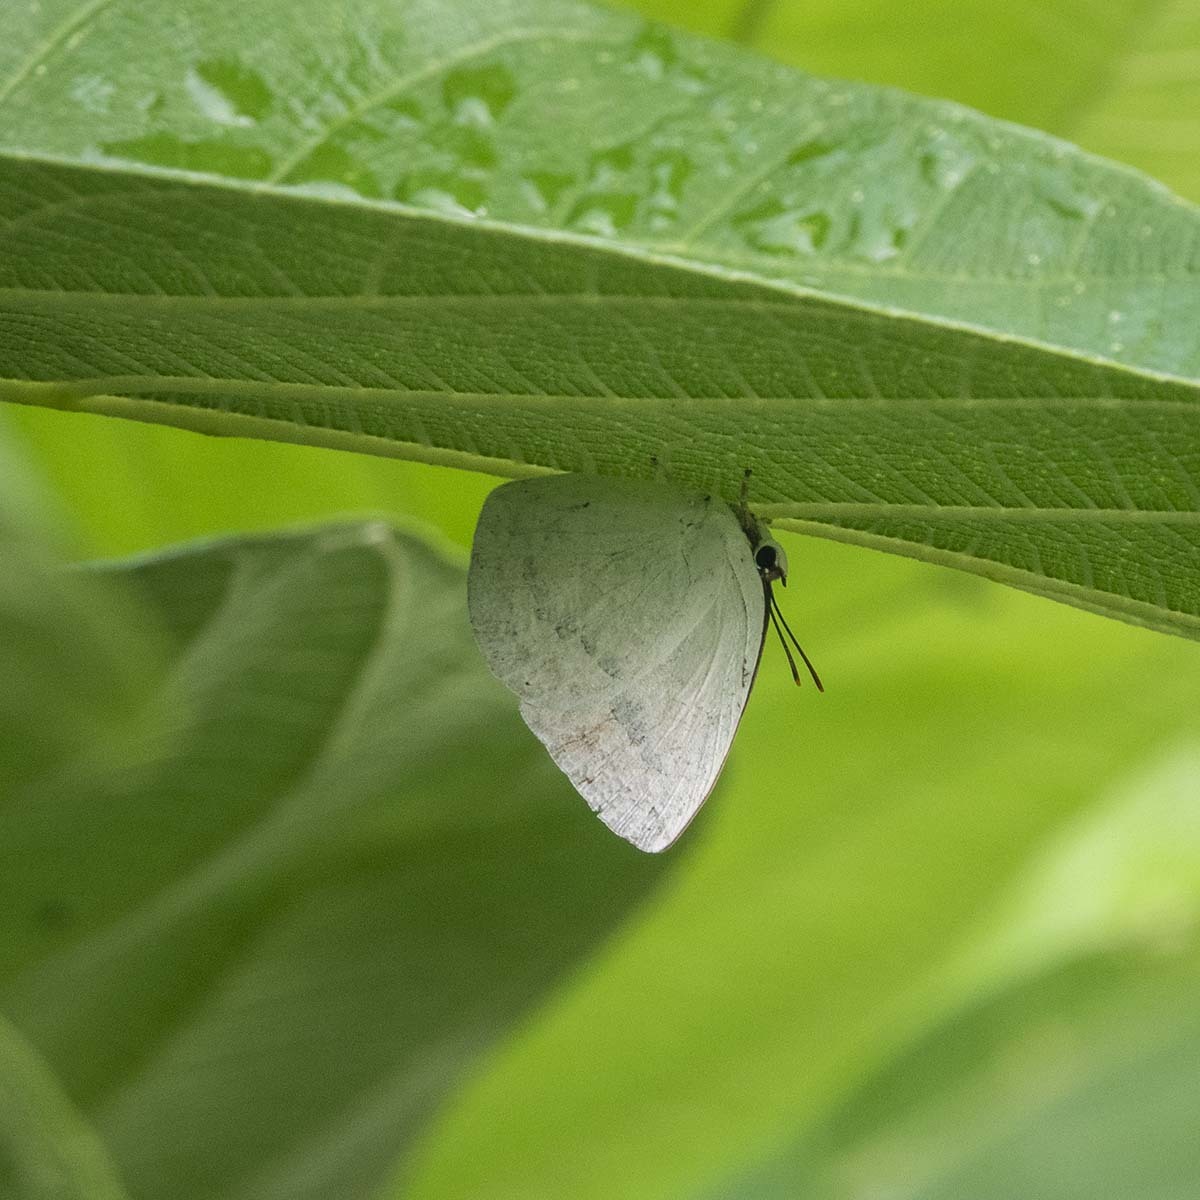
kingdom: Animalia
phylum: Arthropoda
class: Insecta
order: Lepidoptera
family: Lycaenidae
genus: Curetis
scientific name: Curetis thetis
